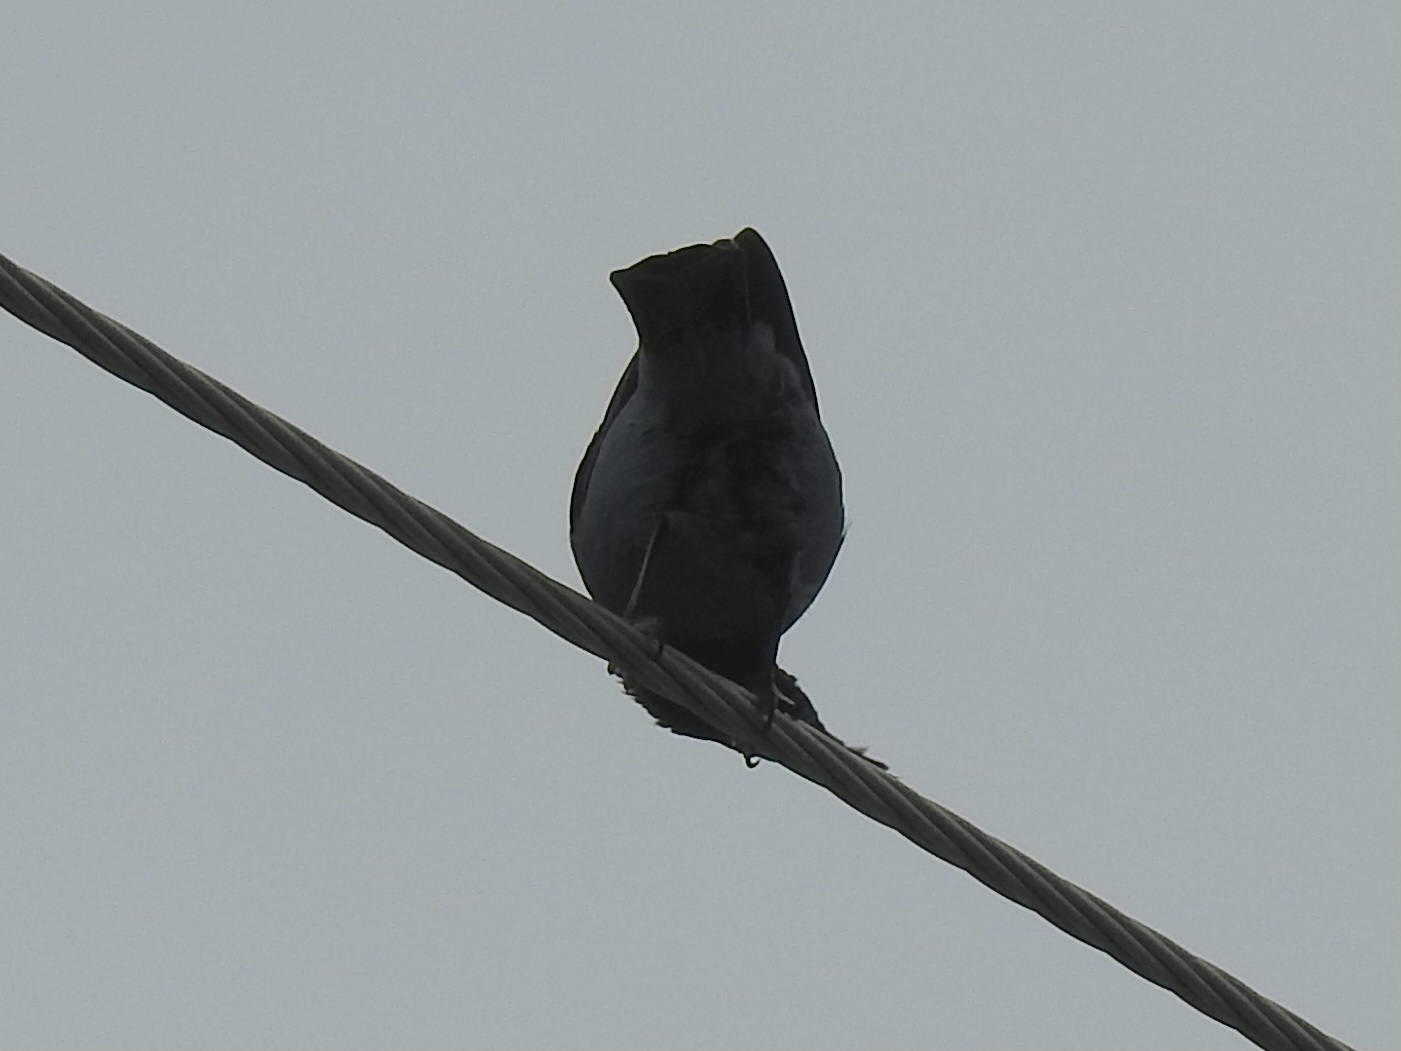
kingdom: Animalia
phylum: Chordata
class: Aves
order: Passeriformes
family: Icteridae
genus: Euphagus
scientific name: Euphagus cyanocephalus
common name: Brewer's blackbird
